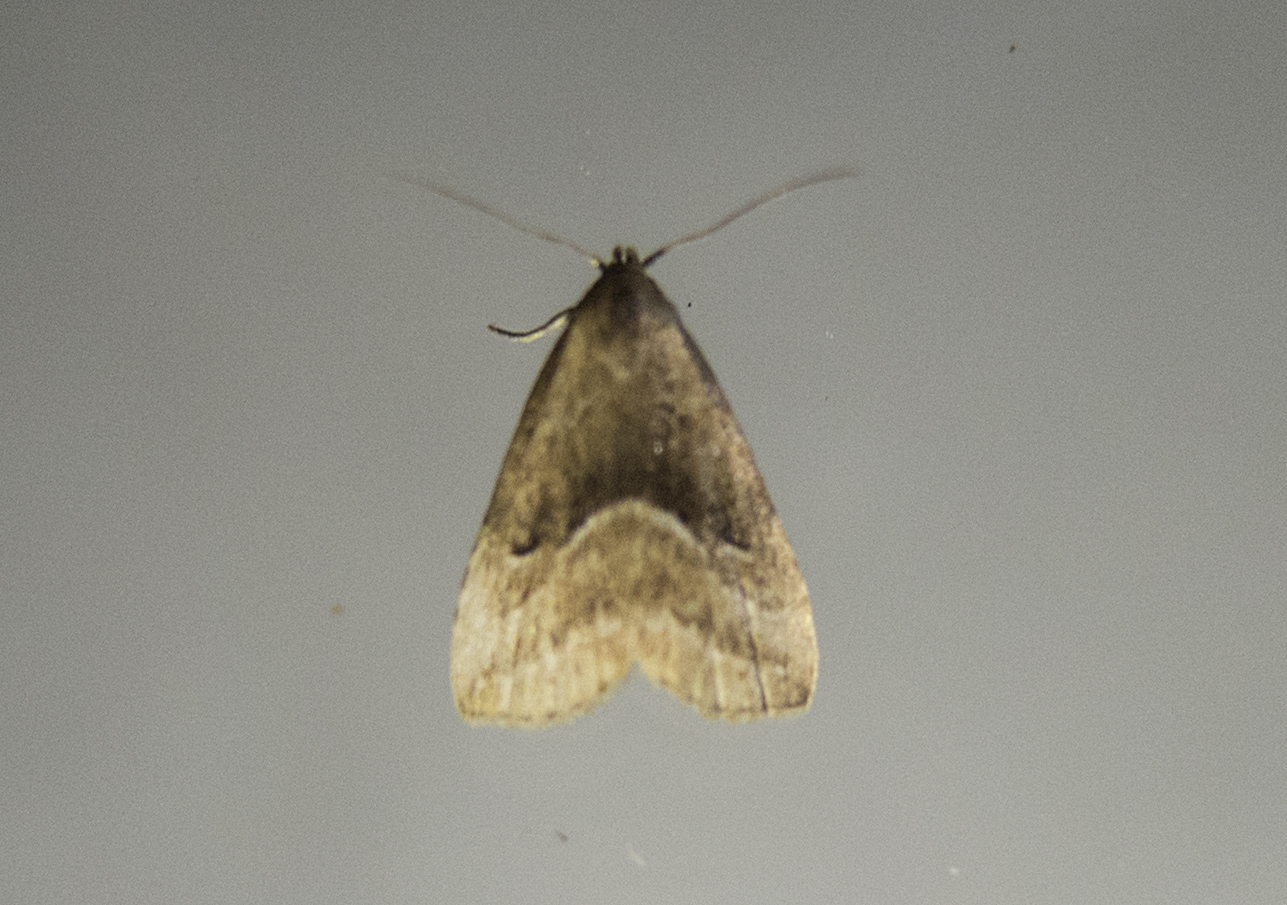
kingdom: Animalia
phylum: Arthropoda
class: Insecta
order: Lepidoptera
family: Erebidae
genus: Schrankia
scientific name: Schrankia taenialis
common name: White-line snout
